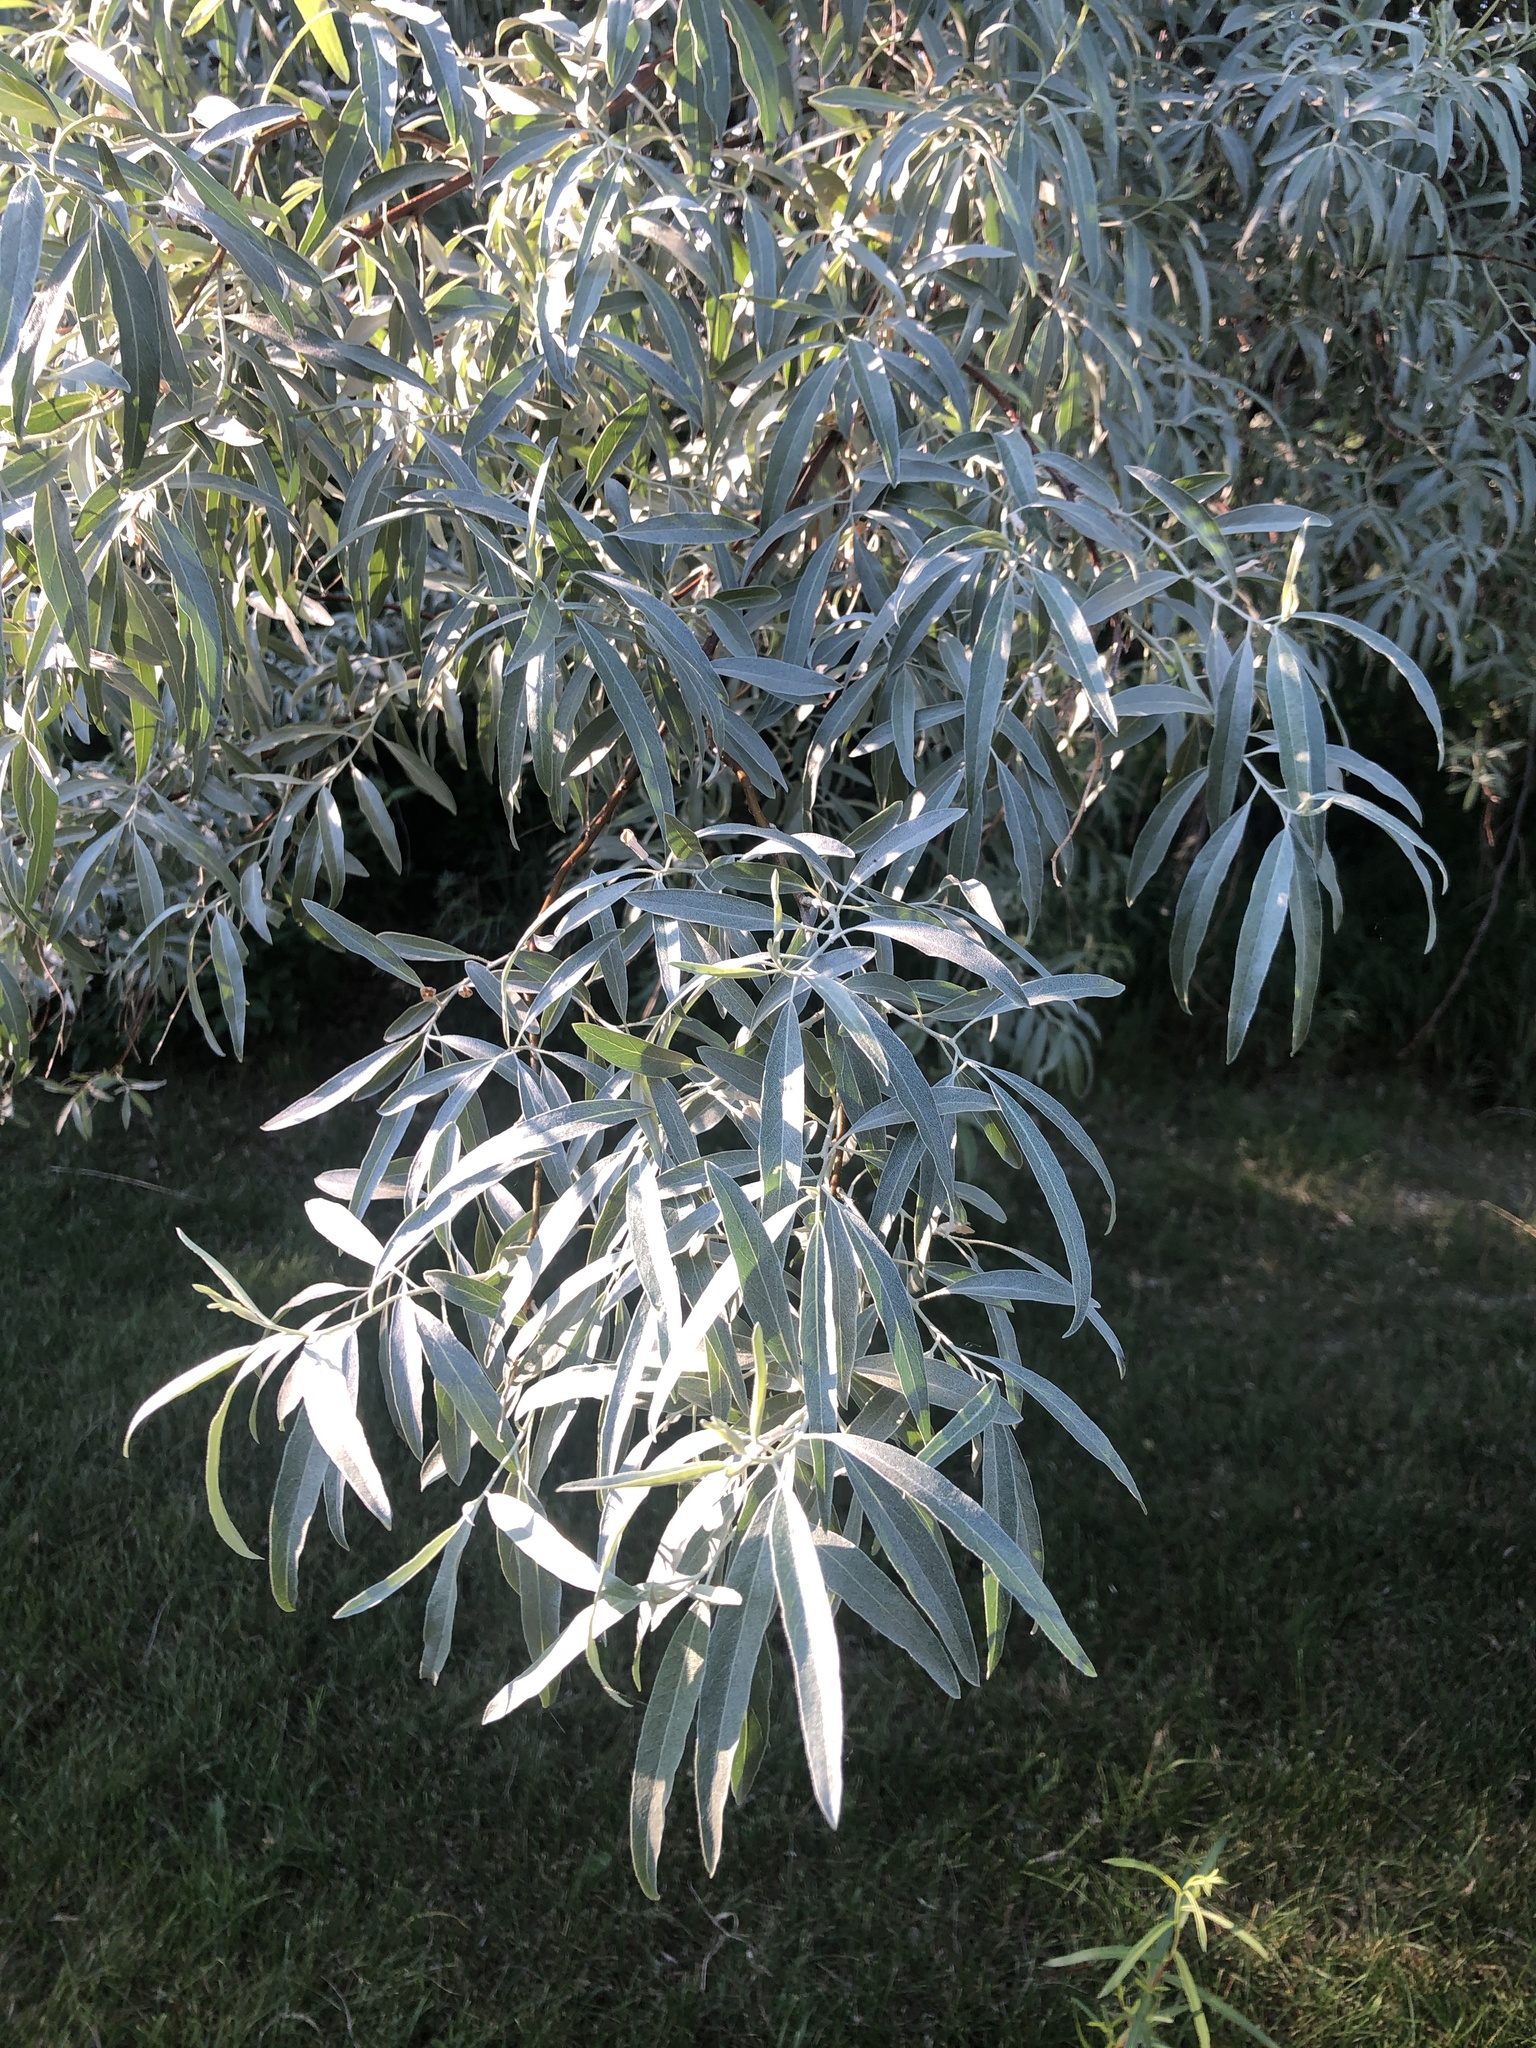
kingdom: Plantae
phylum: Tracheophyta
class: Magnoliopsida
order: Rosales
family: Elaeagnaceae
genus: Elaeagnus
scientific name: Elaeagnus angustifolia
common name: Russian olive
